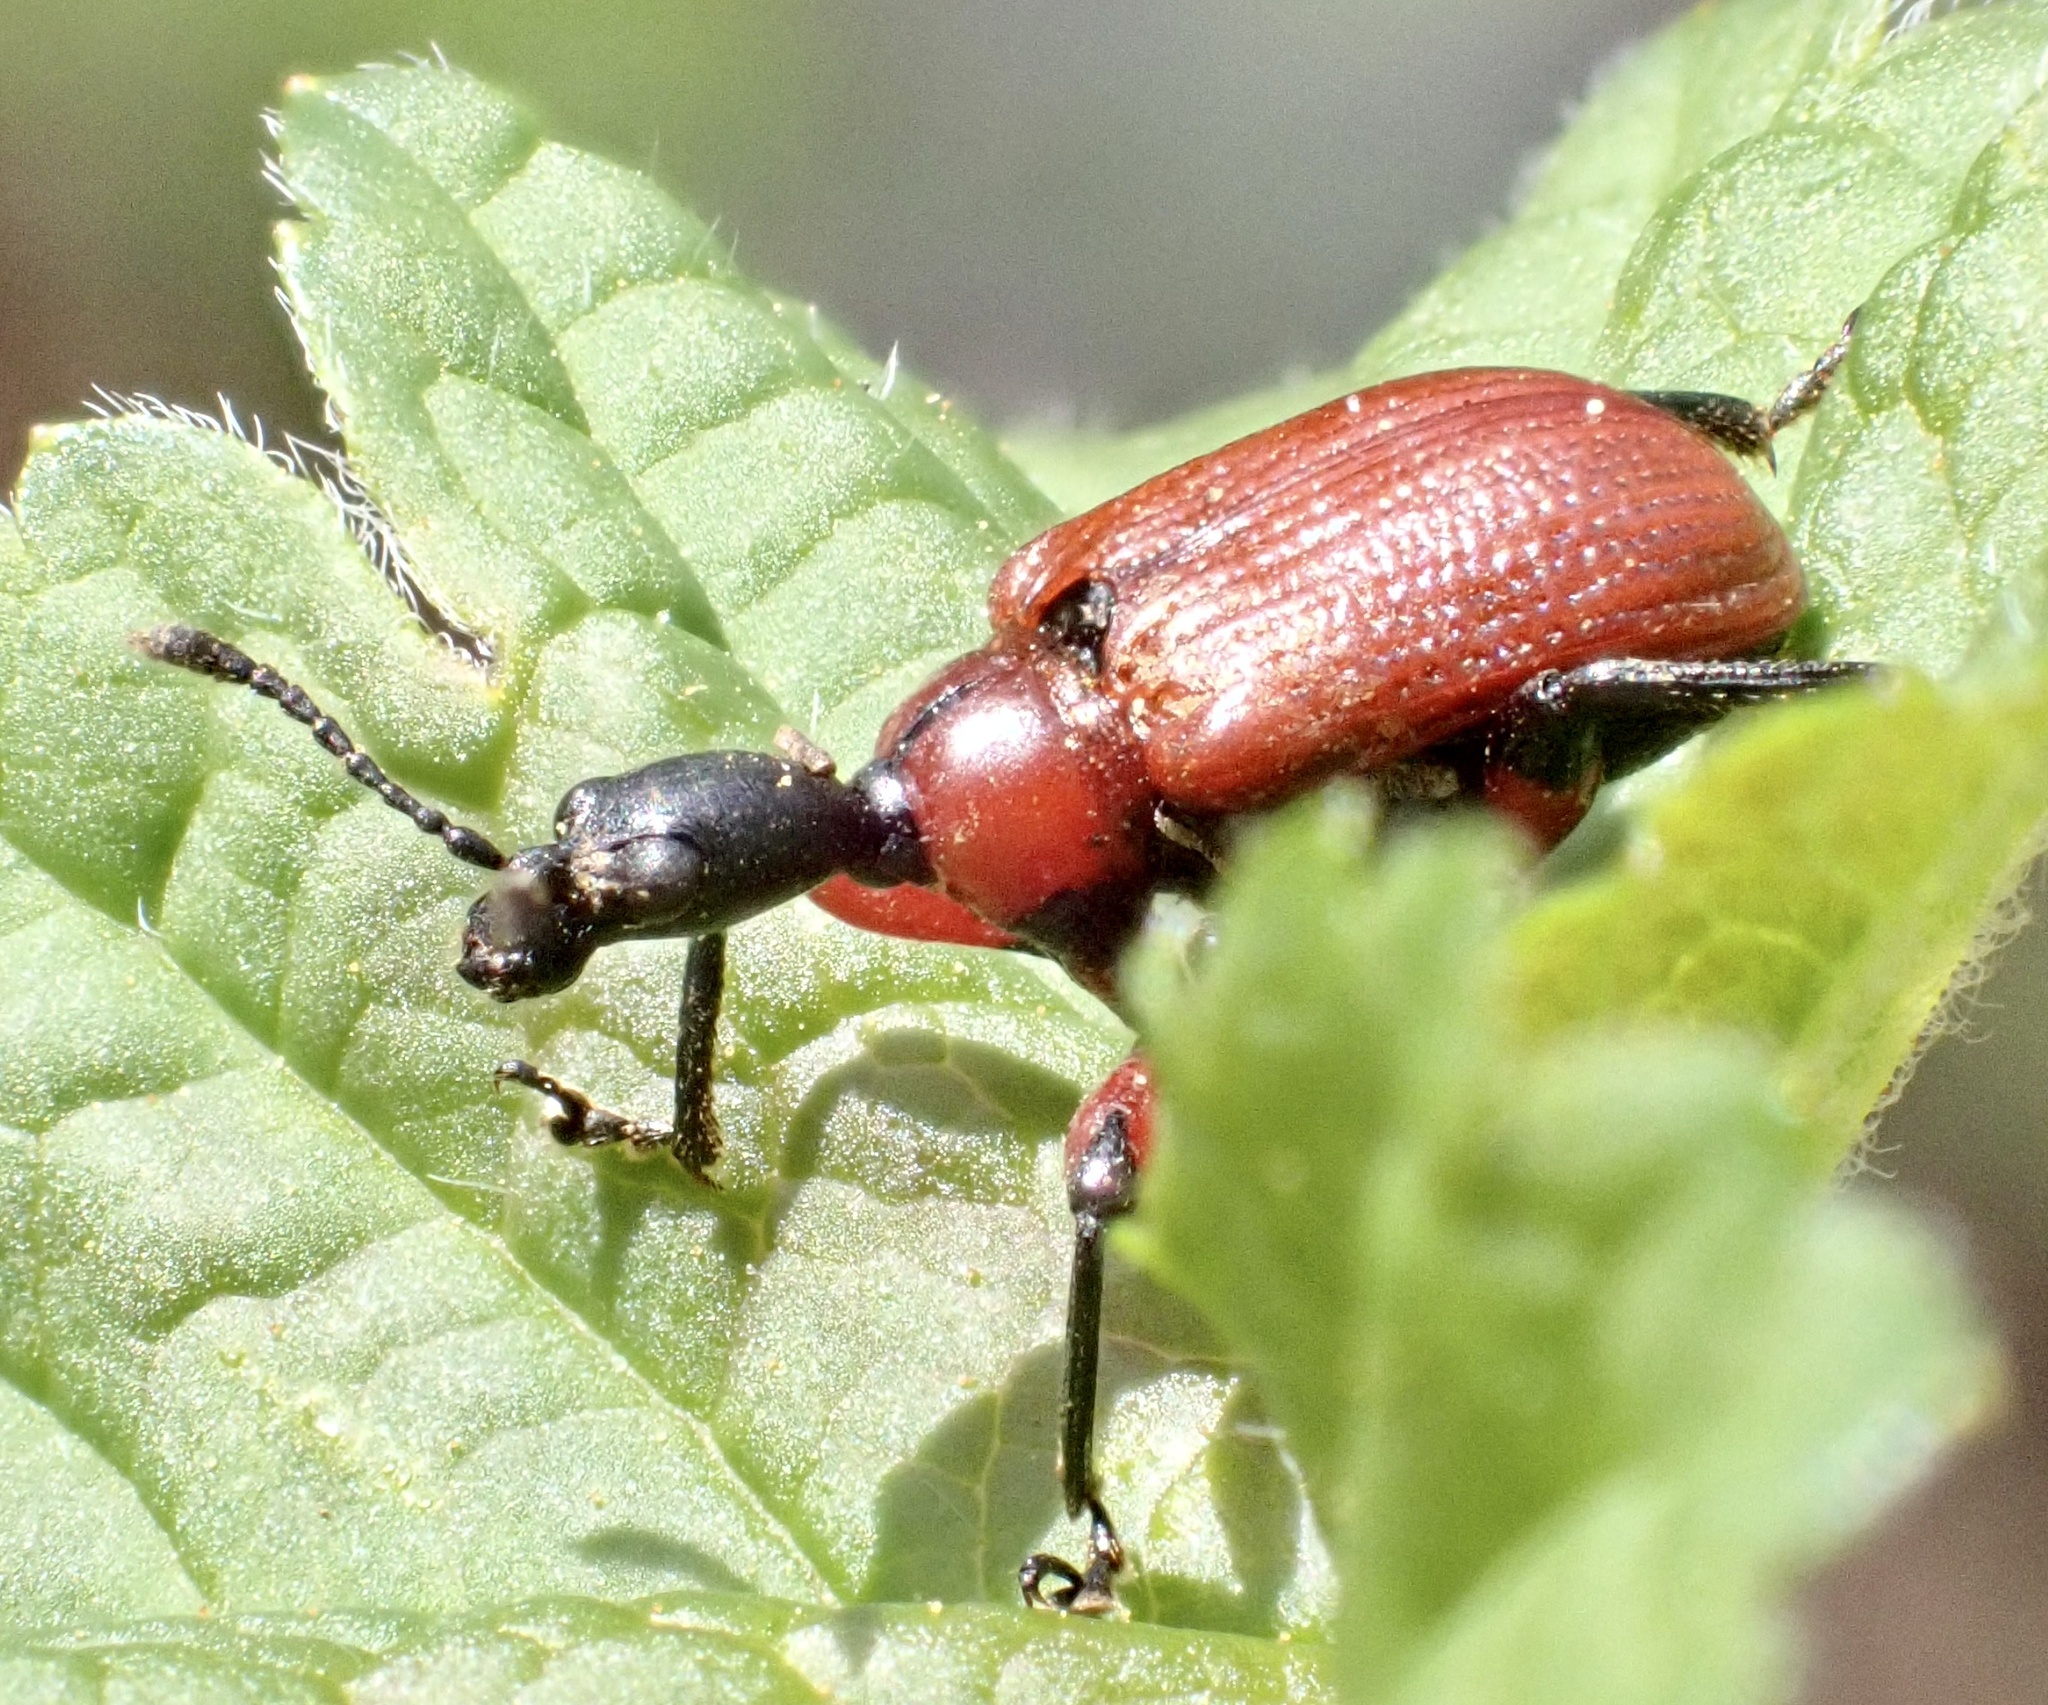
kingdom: Animalia
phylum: Arthropoda
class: Insecta
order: Coleoptera
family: Attelabidae
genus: Apoderus
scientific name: Apoderus coryli
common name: Hazel leaf roller
